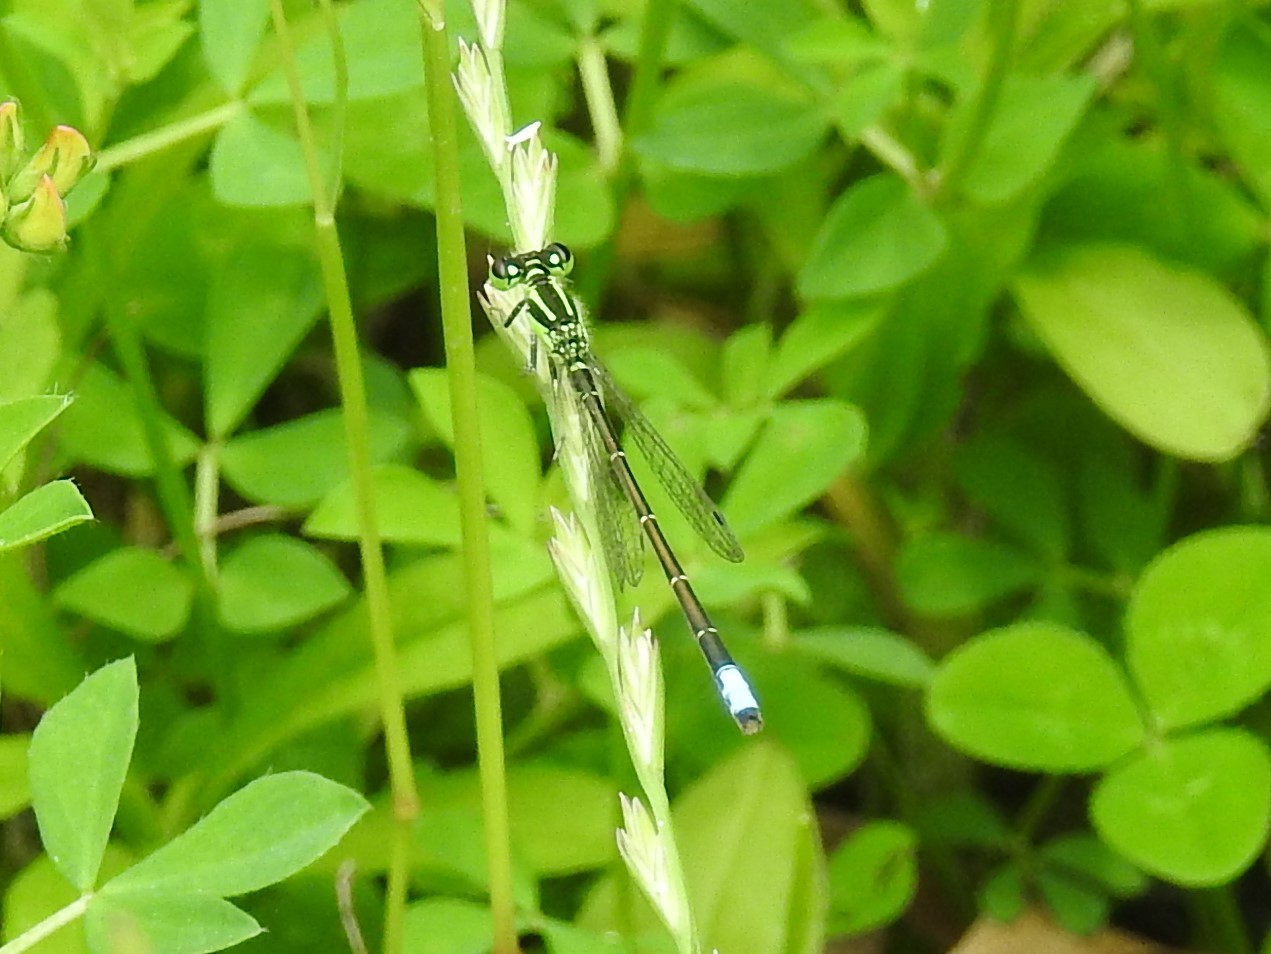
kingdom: Animalia
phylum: Arthropoda
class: Insecta
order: Odonata
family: Coenagrionidae
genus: Ischnura
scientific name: Ischnura verticalis
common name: Eastern forktail
